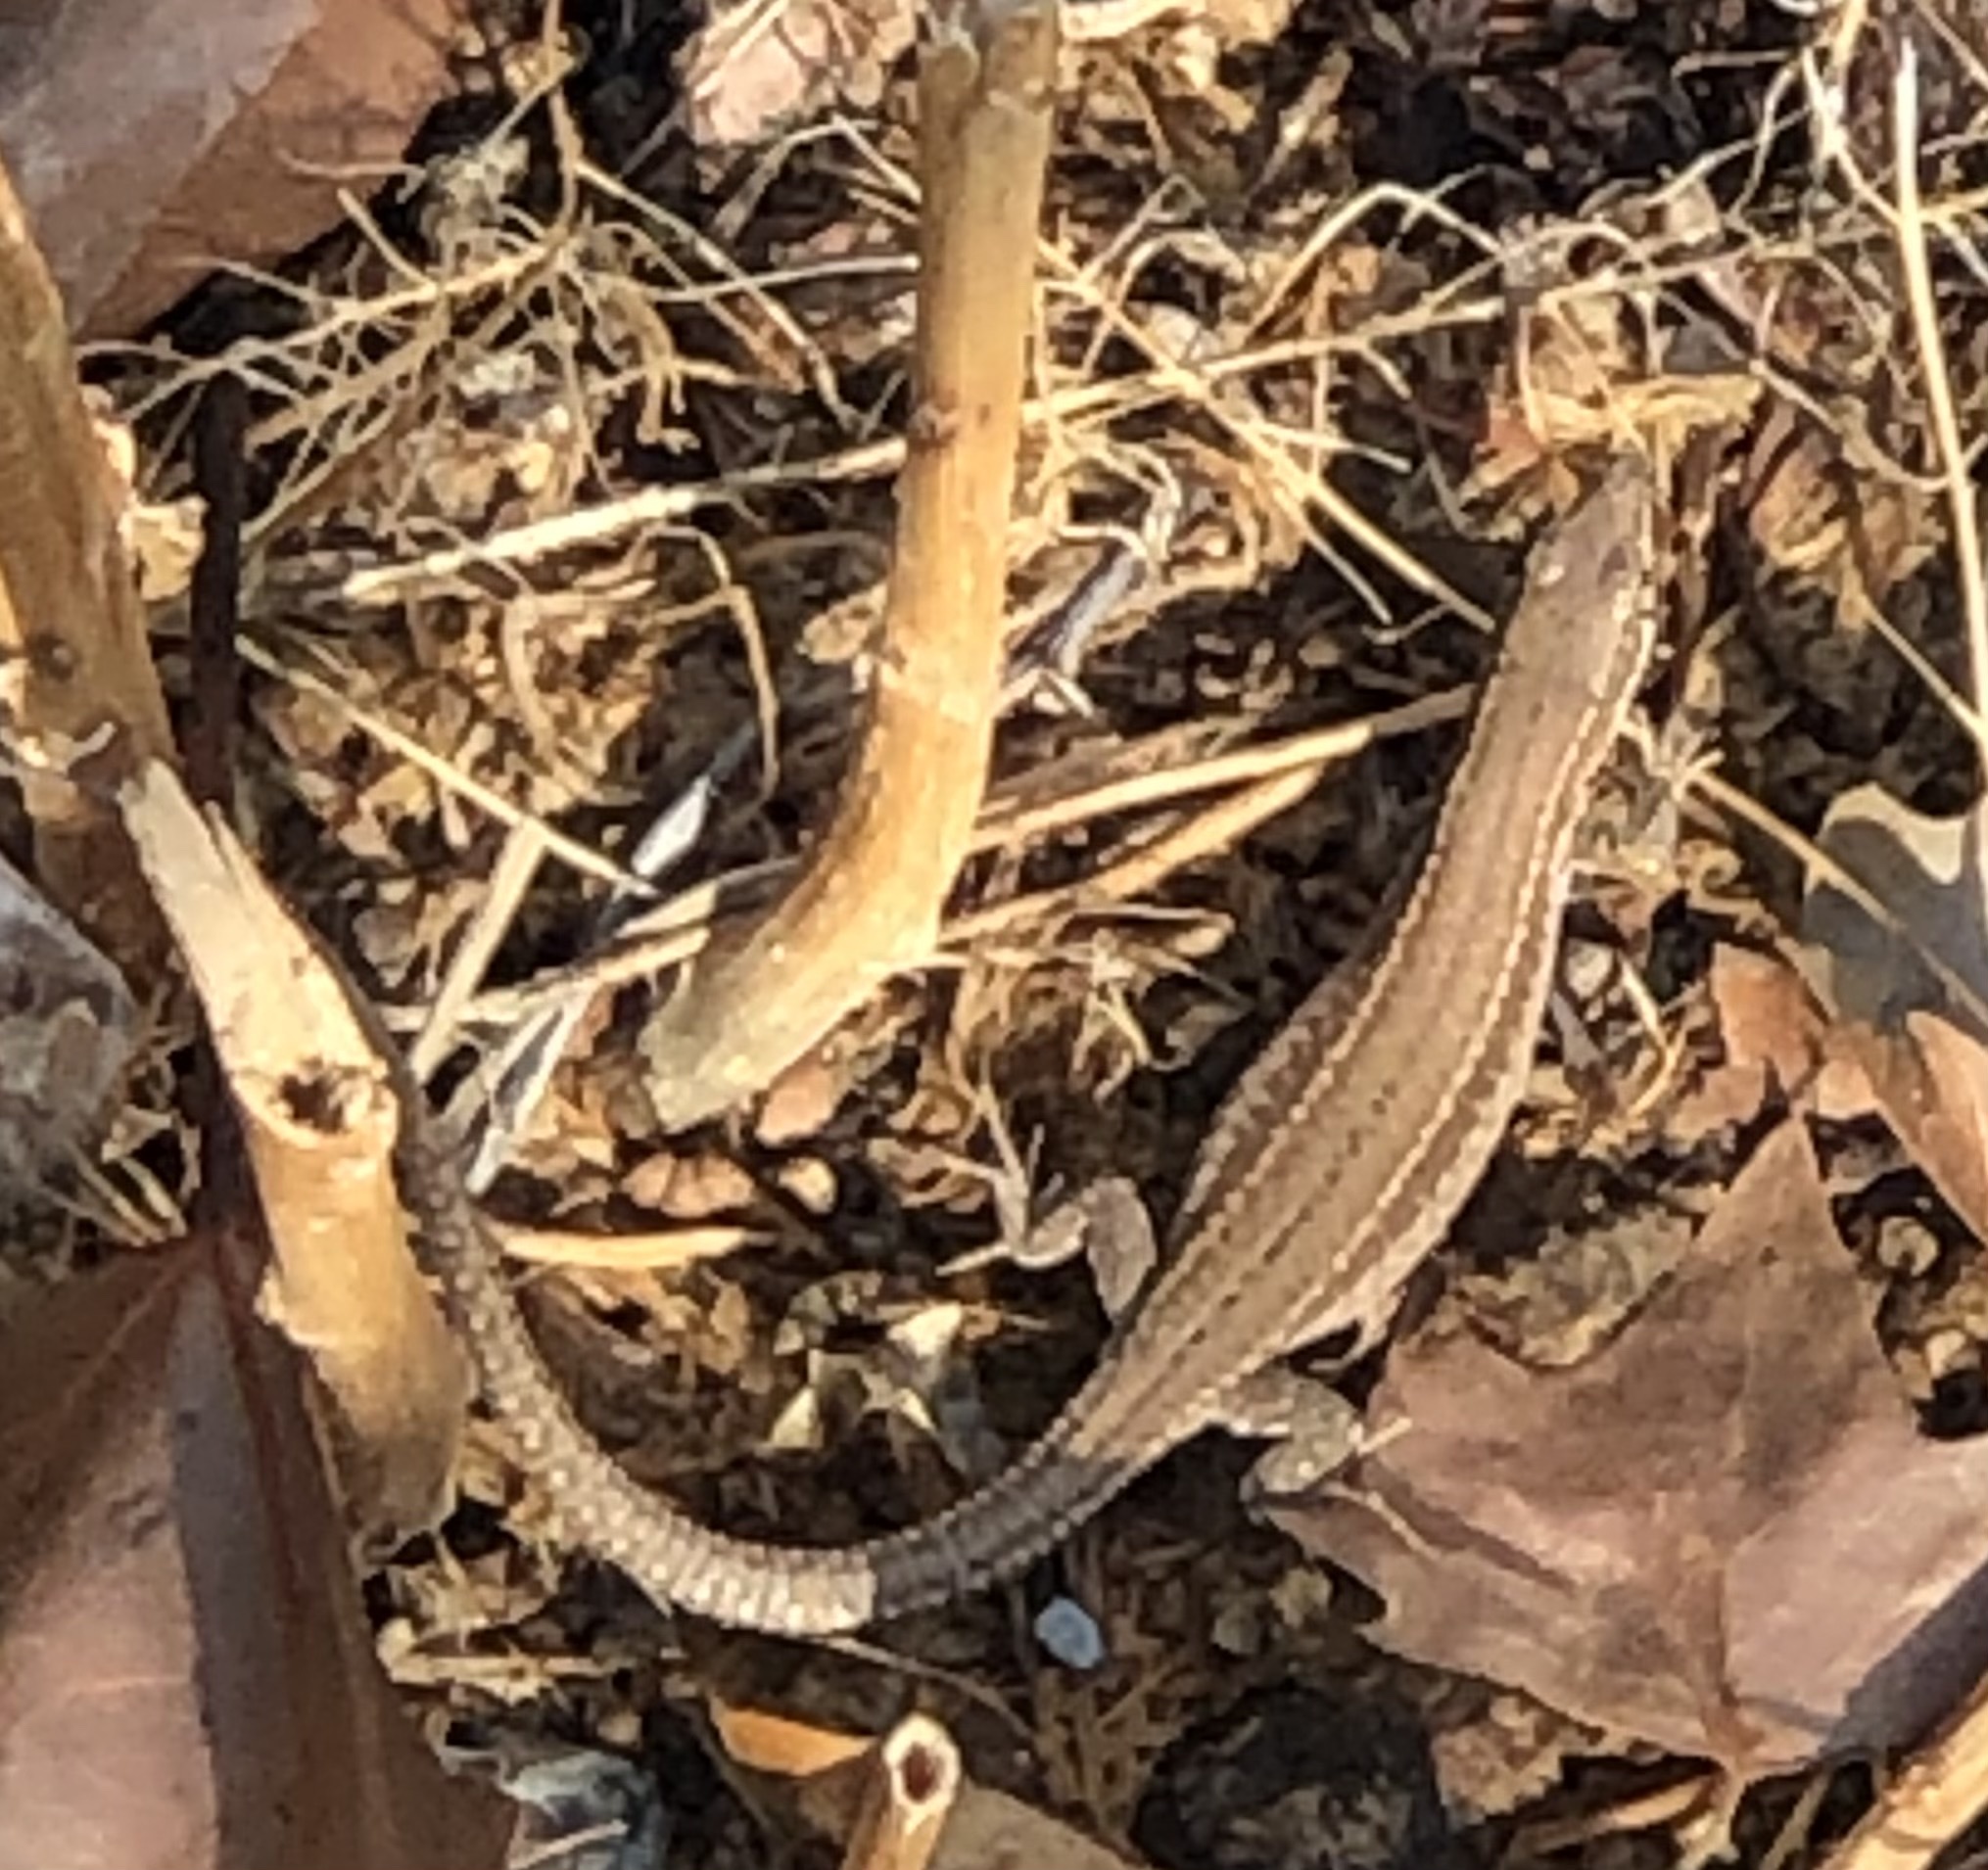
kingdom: Animalia
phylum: Chordata
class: Squamata
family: Lacertidae
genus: Podarcis
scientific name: Podarcis liolepis
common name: Catalonian wall lizard
